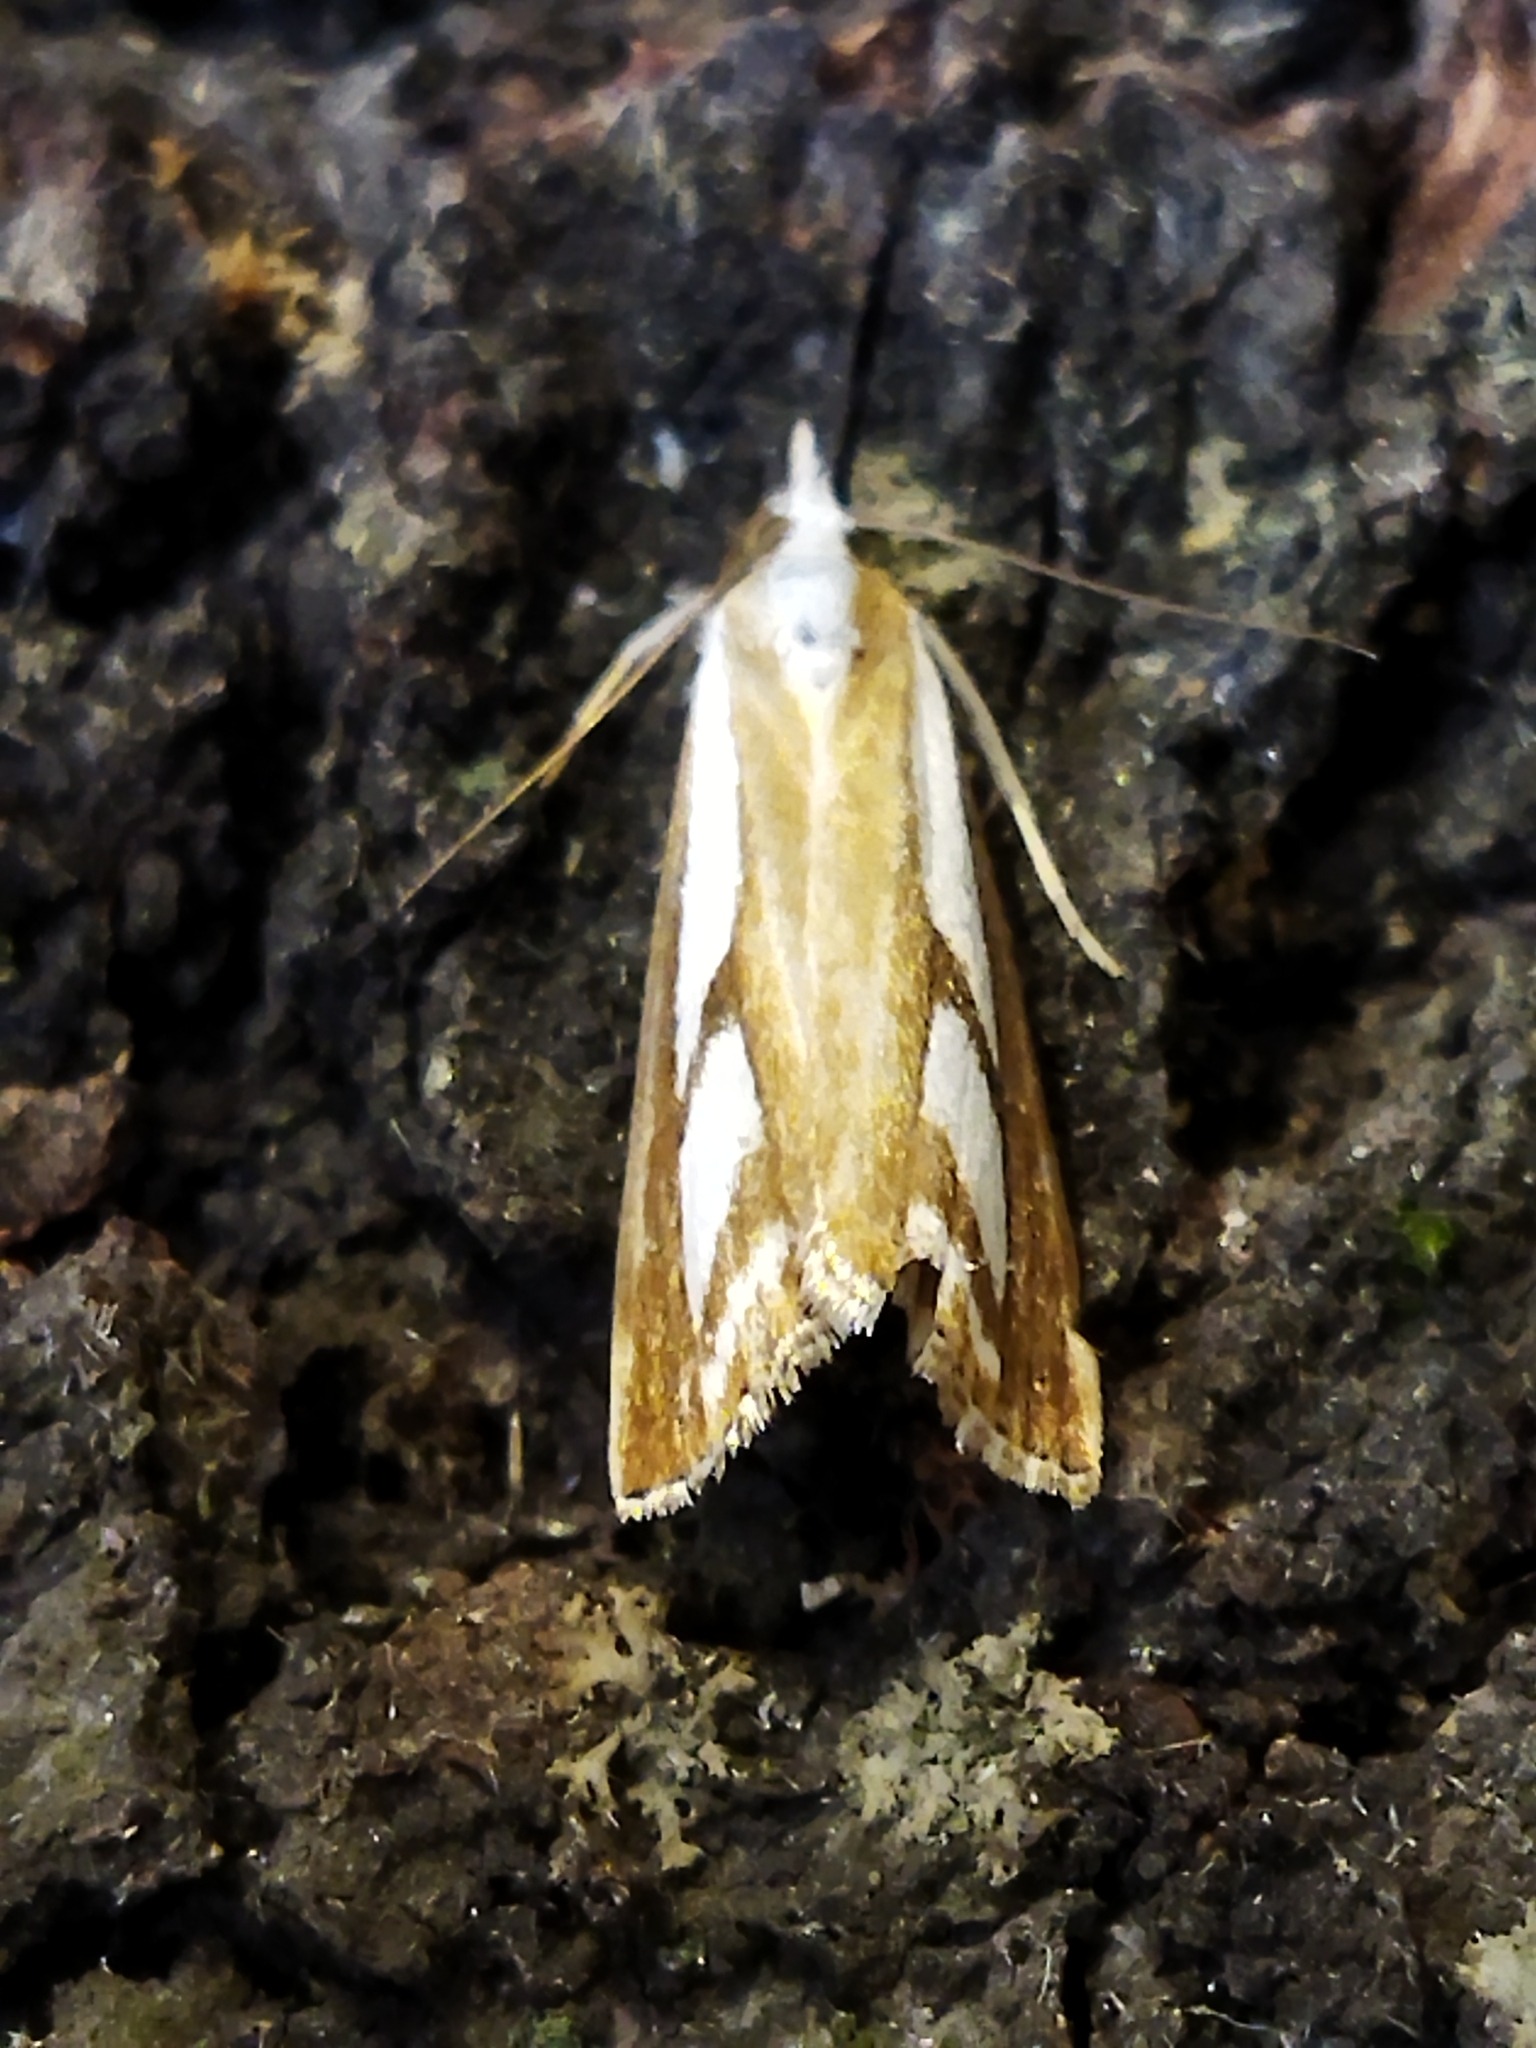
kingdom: Animalia
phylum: Arthropoda
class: Insecta
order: Lepidoptera
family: Crambidae
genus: Catoptria
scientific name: Catoptria
